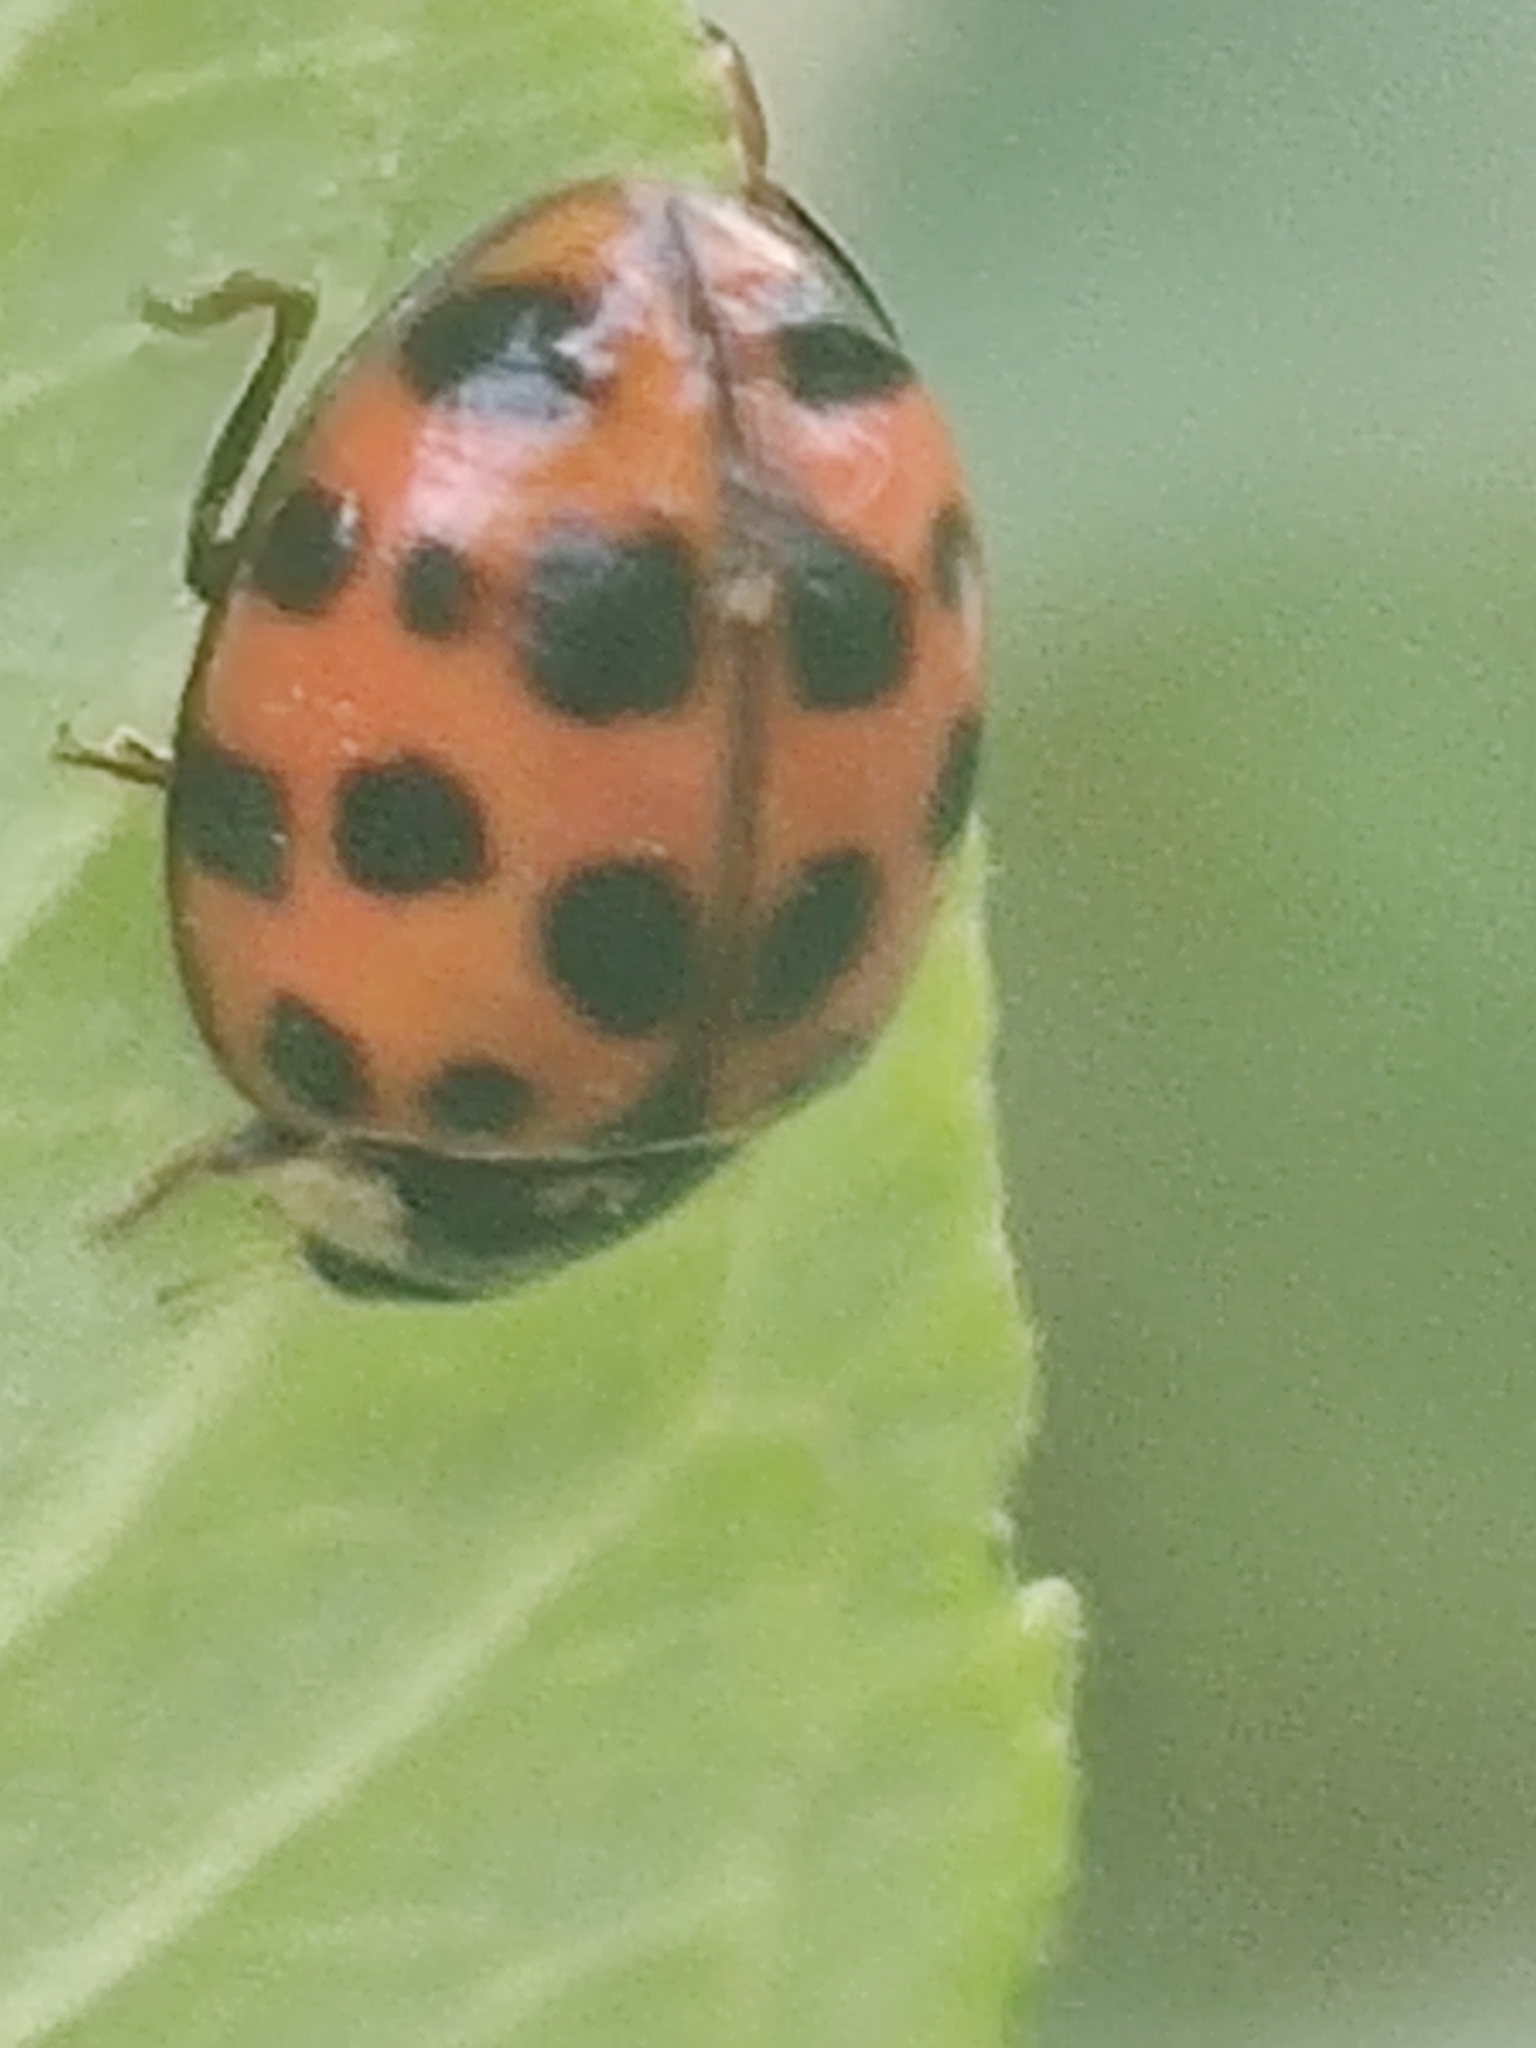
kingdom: Animalia
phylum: Arthropoda
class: Insecta
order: Coleoptera
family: Coccinellidae
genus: Harmonia
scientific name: Harmonia axyridis
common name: Harlequin ladybird
